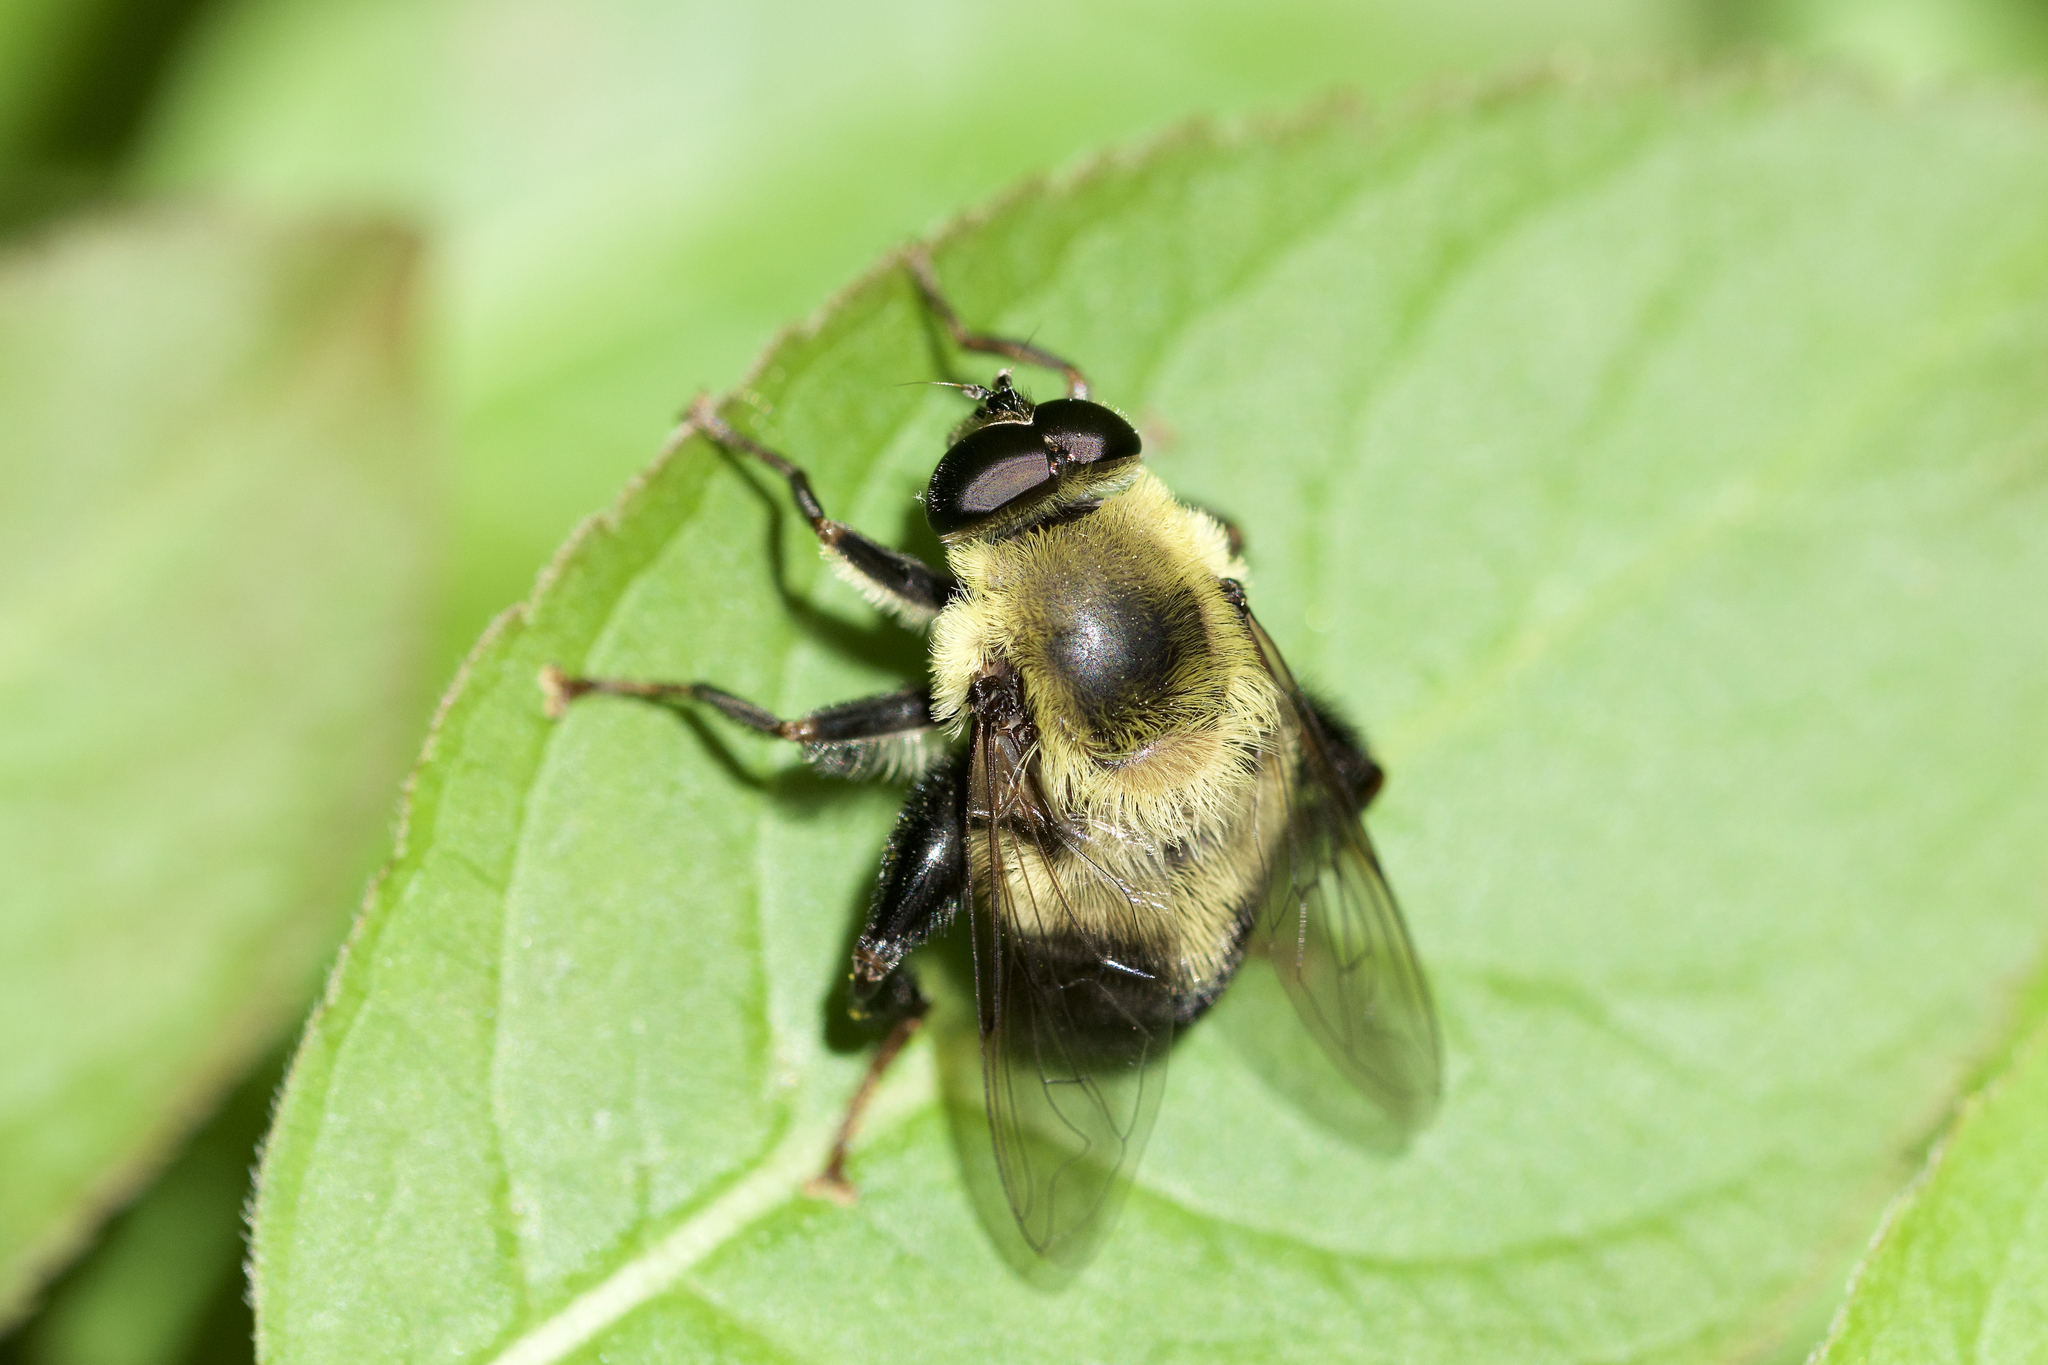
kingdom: Animalia
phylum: Arthropoda
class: Insecta
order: Diptera
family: Syrphidae
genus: Imatisma
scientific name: Imatisma posticata
